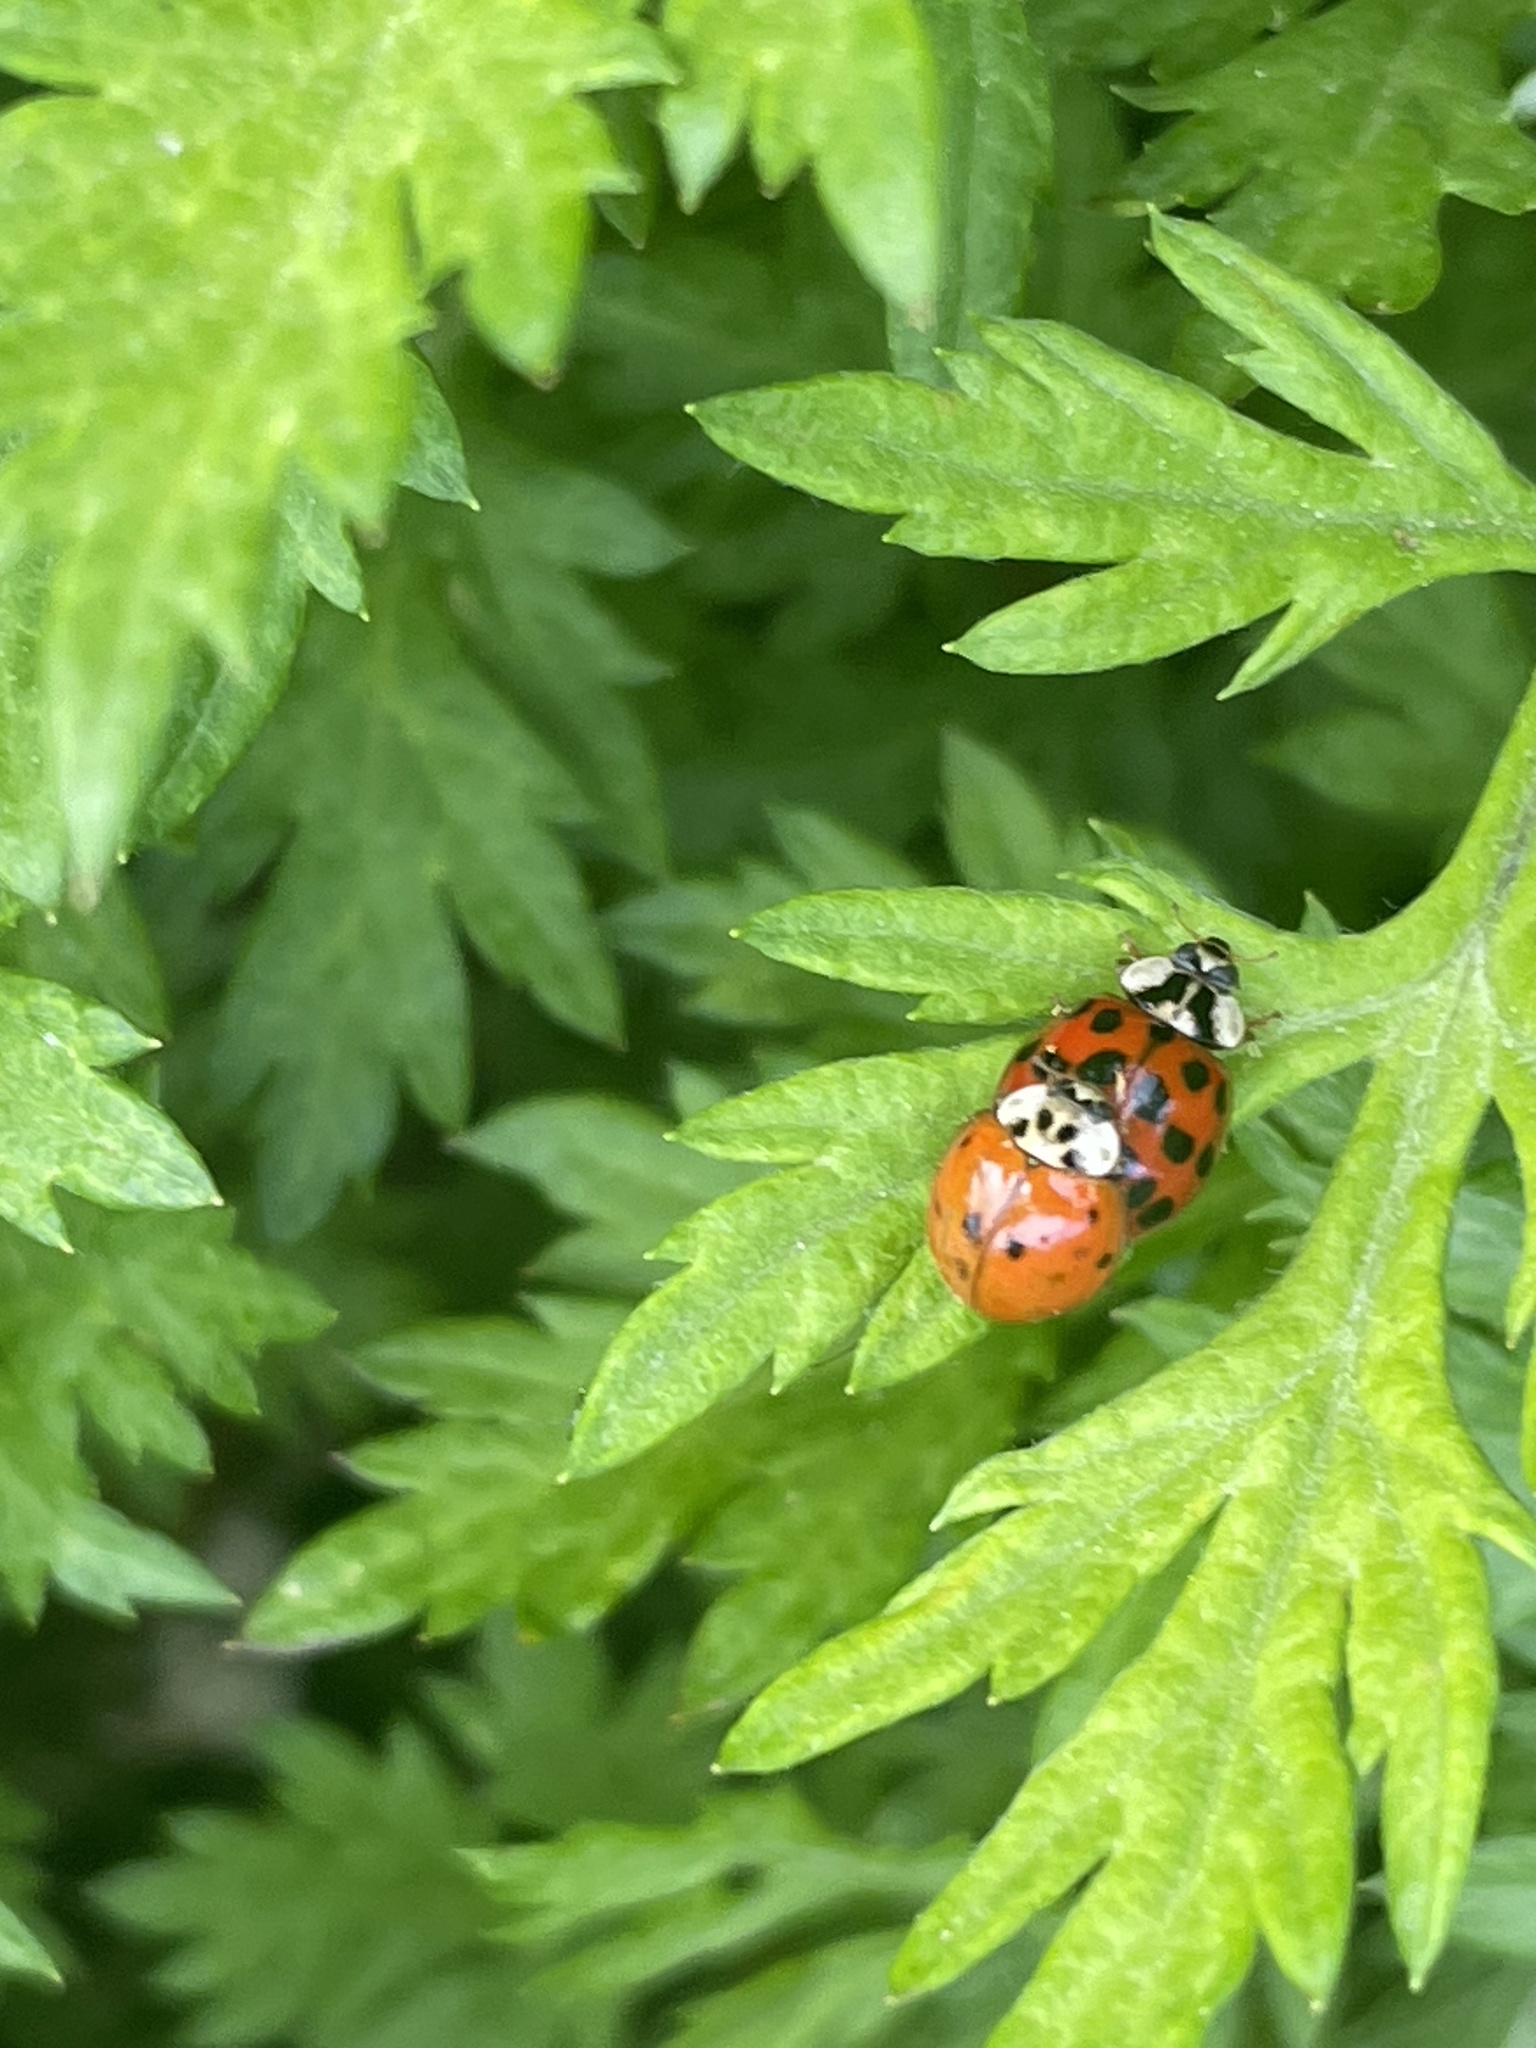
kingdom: Animalia
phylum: Arthropoda
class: Insecta
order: Coleoptera
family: Coccinellidae
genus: Harmonia
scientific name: Harmonia axyridis
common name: Harlequin ladybird
